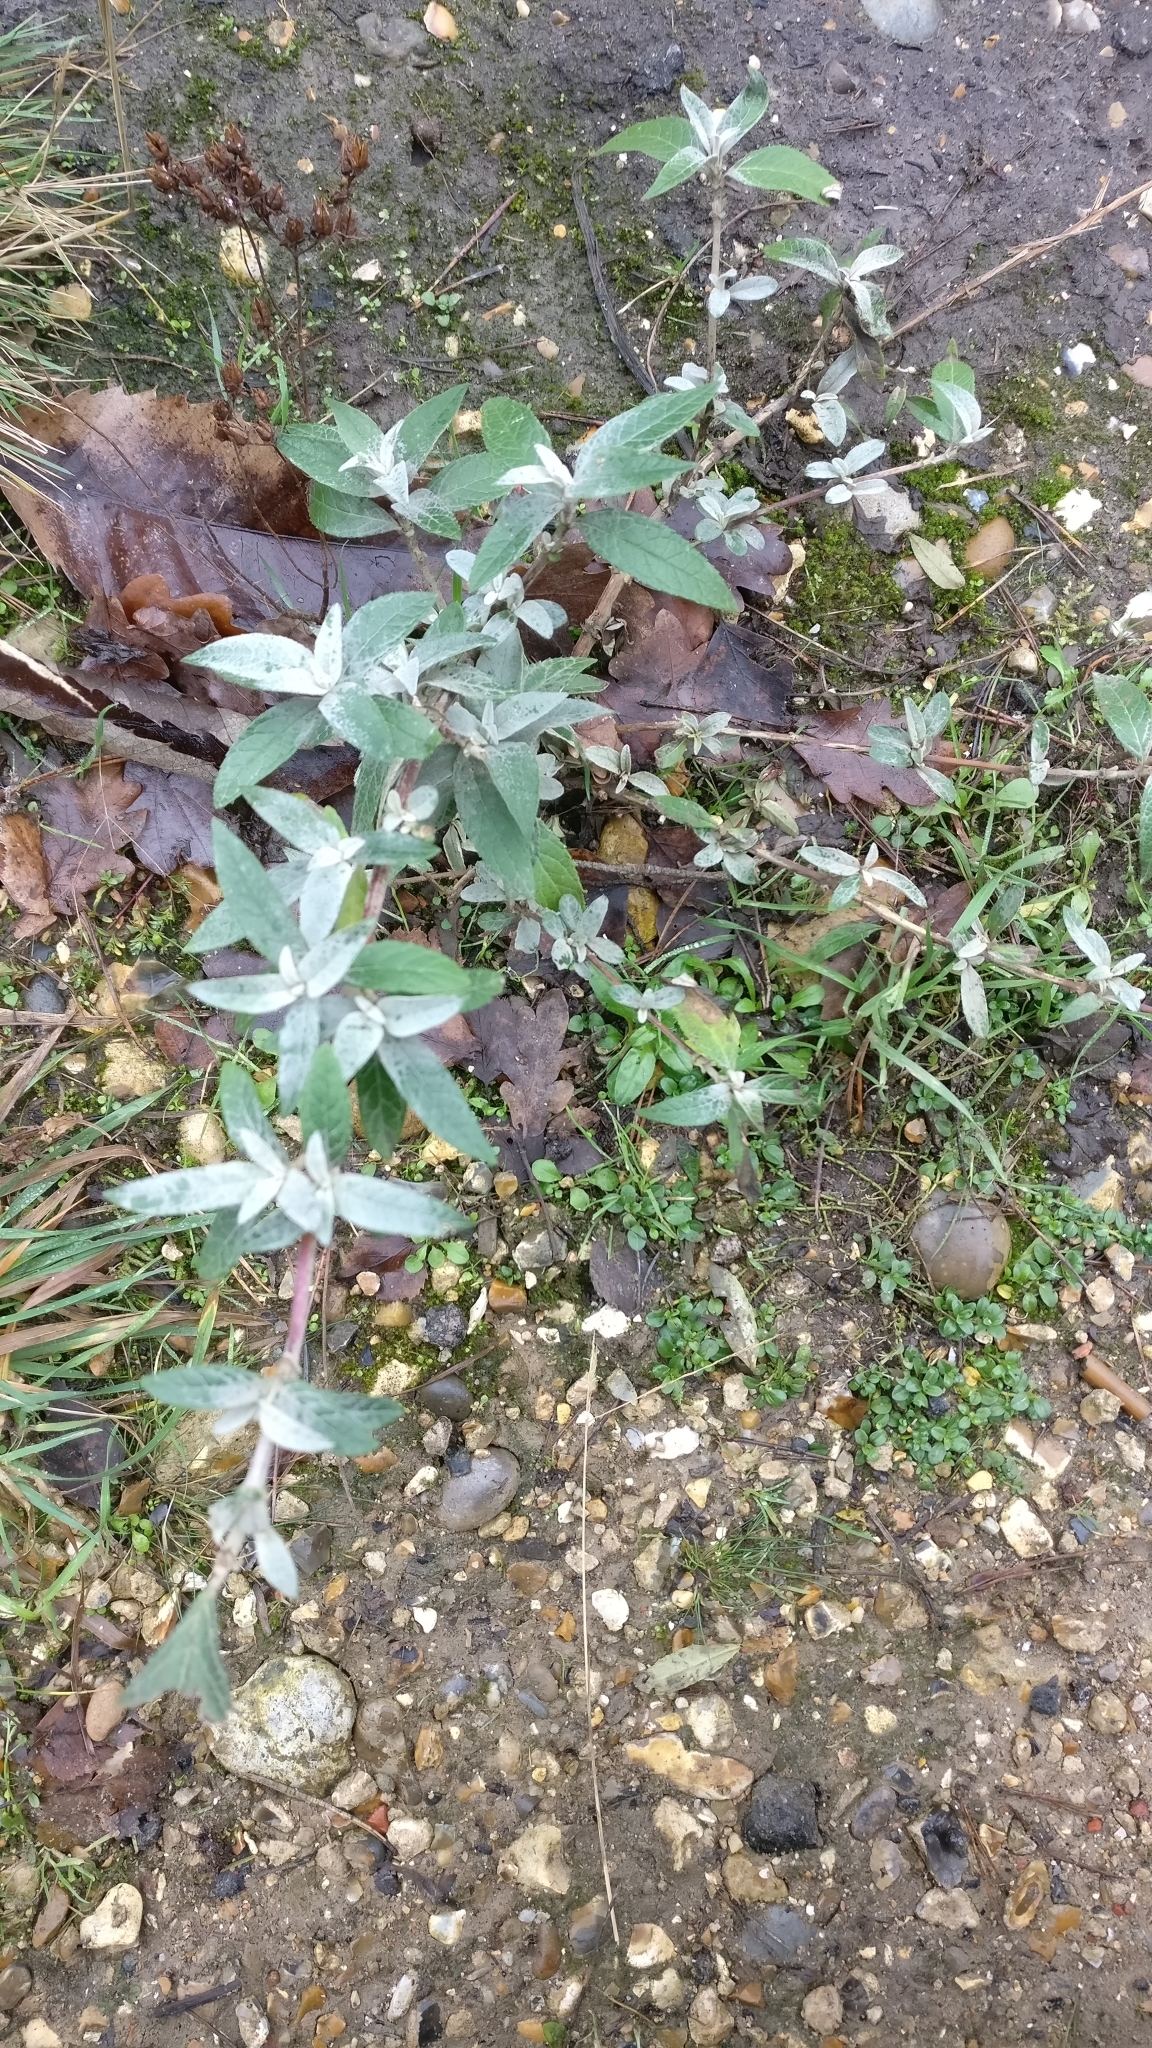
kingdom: Plantae
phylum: Tracheophyta
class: Magnoliopsida
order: Lamiales
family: Scrophulariaceae
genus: Buddleja
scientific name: Buddleja davidii
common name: Butterfly-bush
